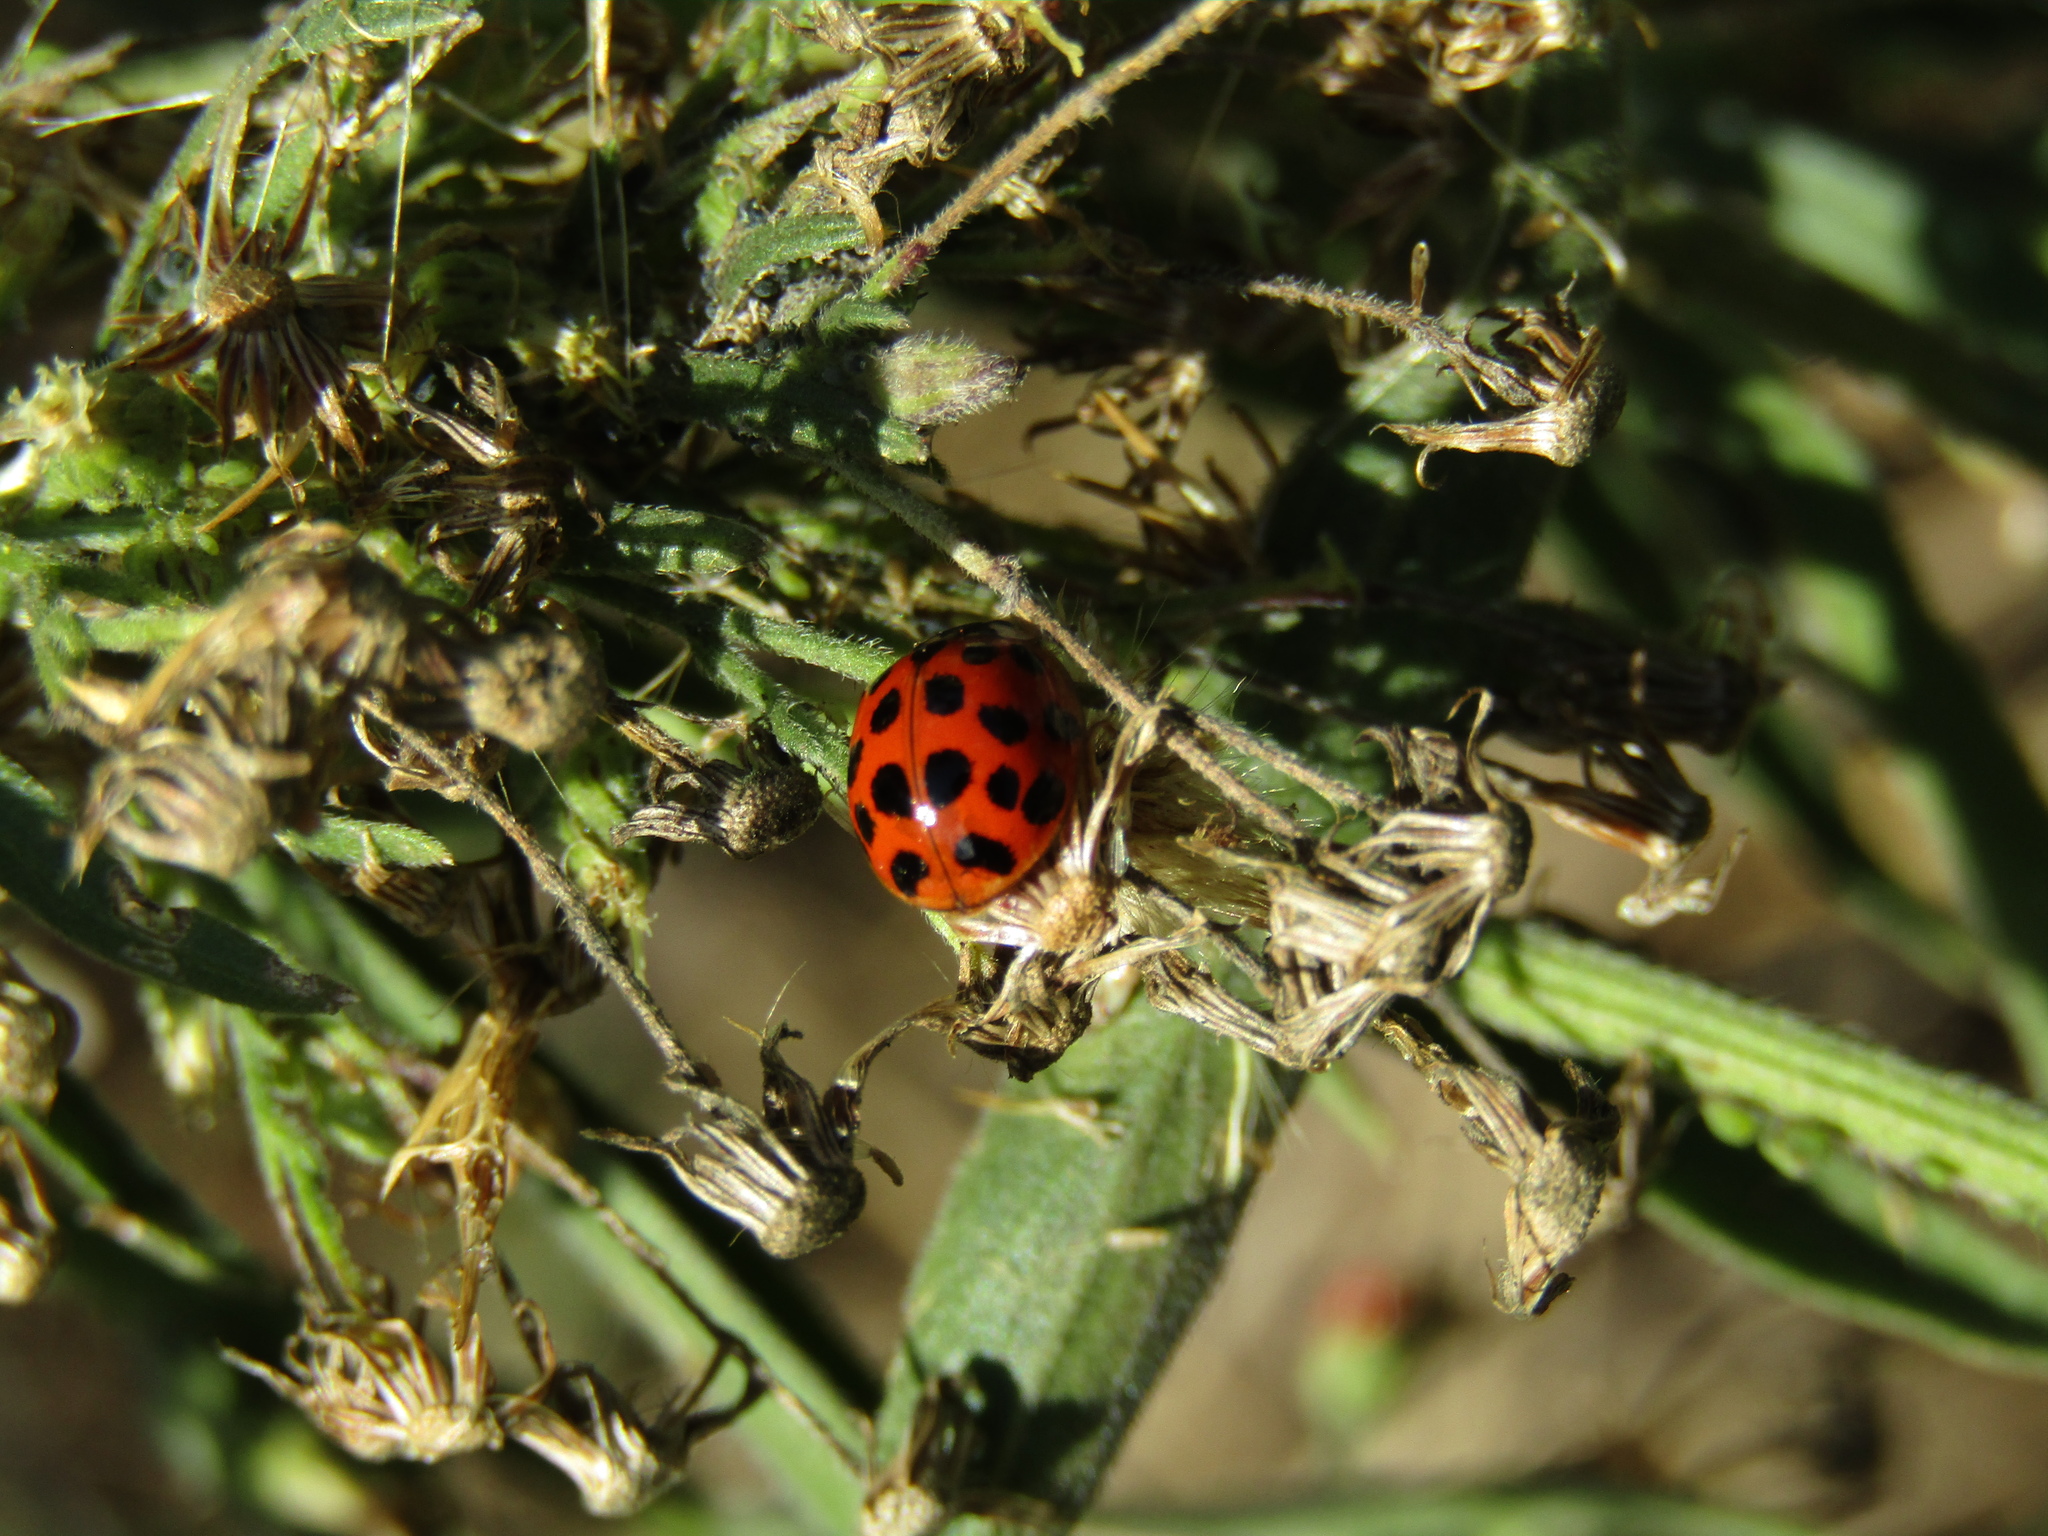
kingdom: Animalia
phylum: Arthropoda
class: Insecta
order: Coleoptera
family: Coccinellidae
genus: Harmonia
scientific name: Harmonia axyridis
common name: Harlequin ladybird
